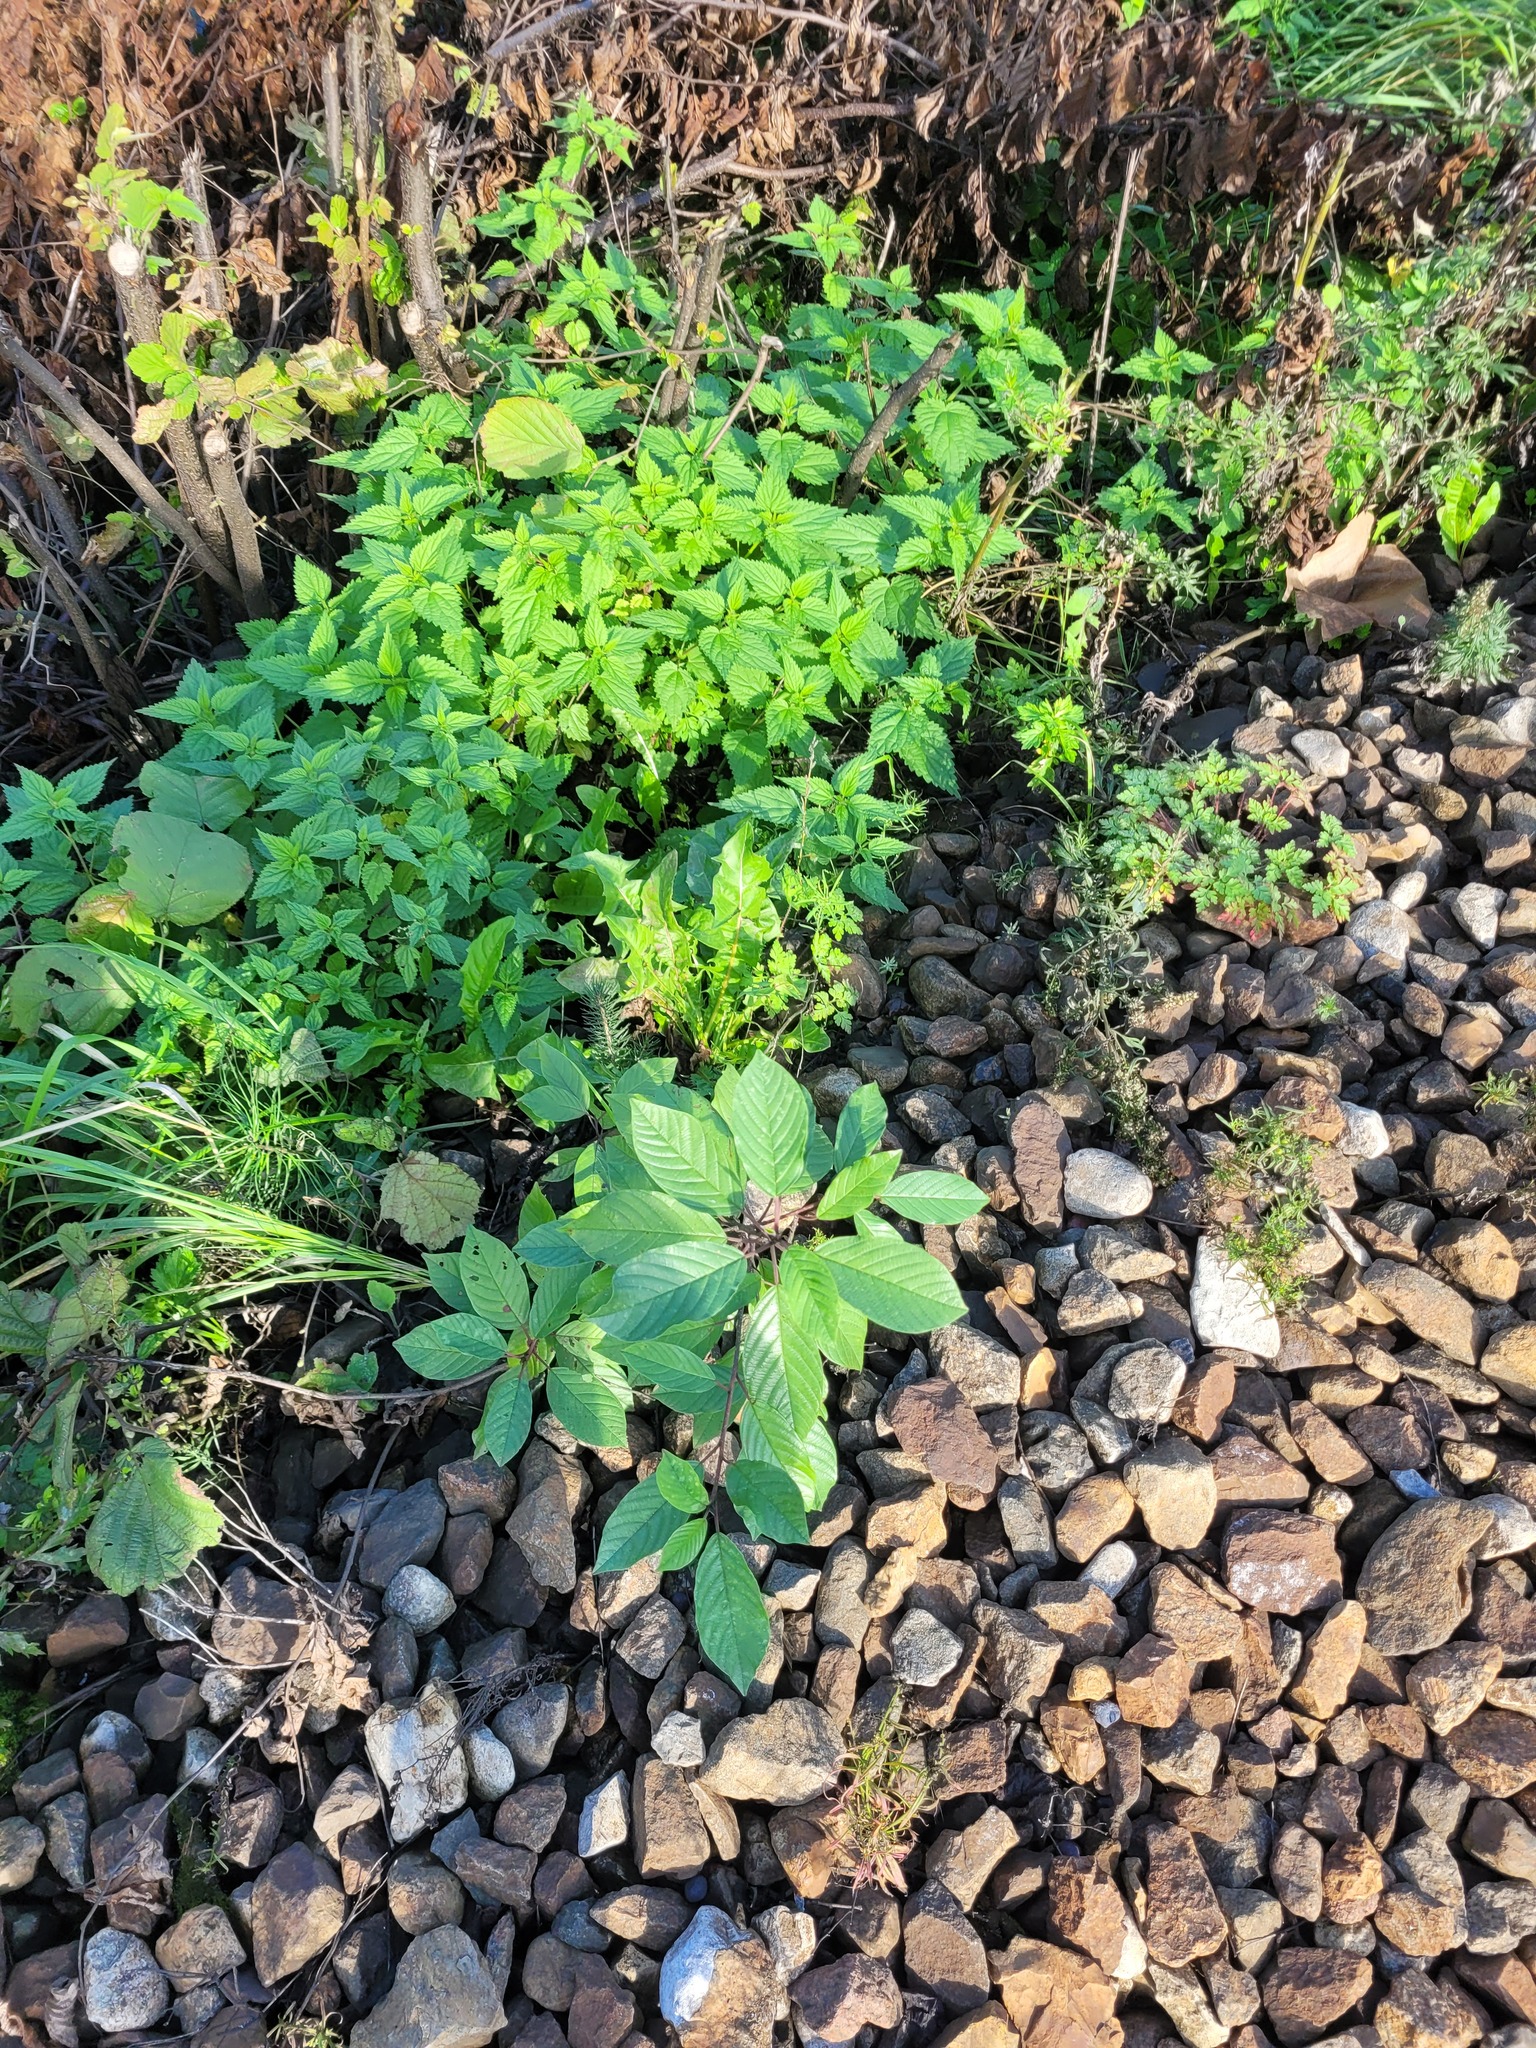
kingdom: Plantae
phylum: Tracheophyta
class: Magnoliopsida
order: Rosales
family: Rhamnaceae
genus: Frangula
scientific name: Frangula alnus
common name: Alder buckthorn
